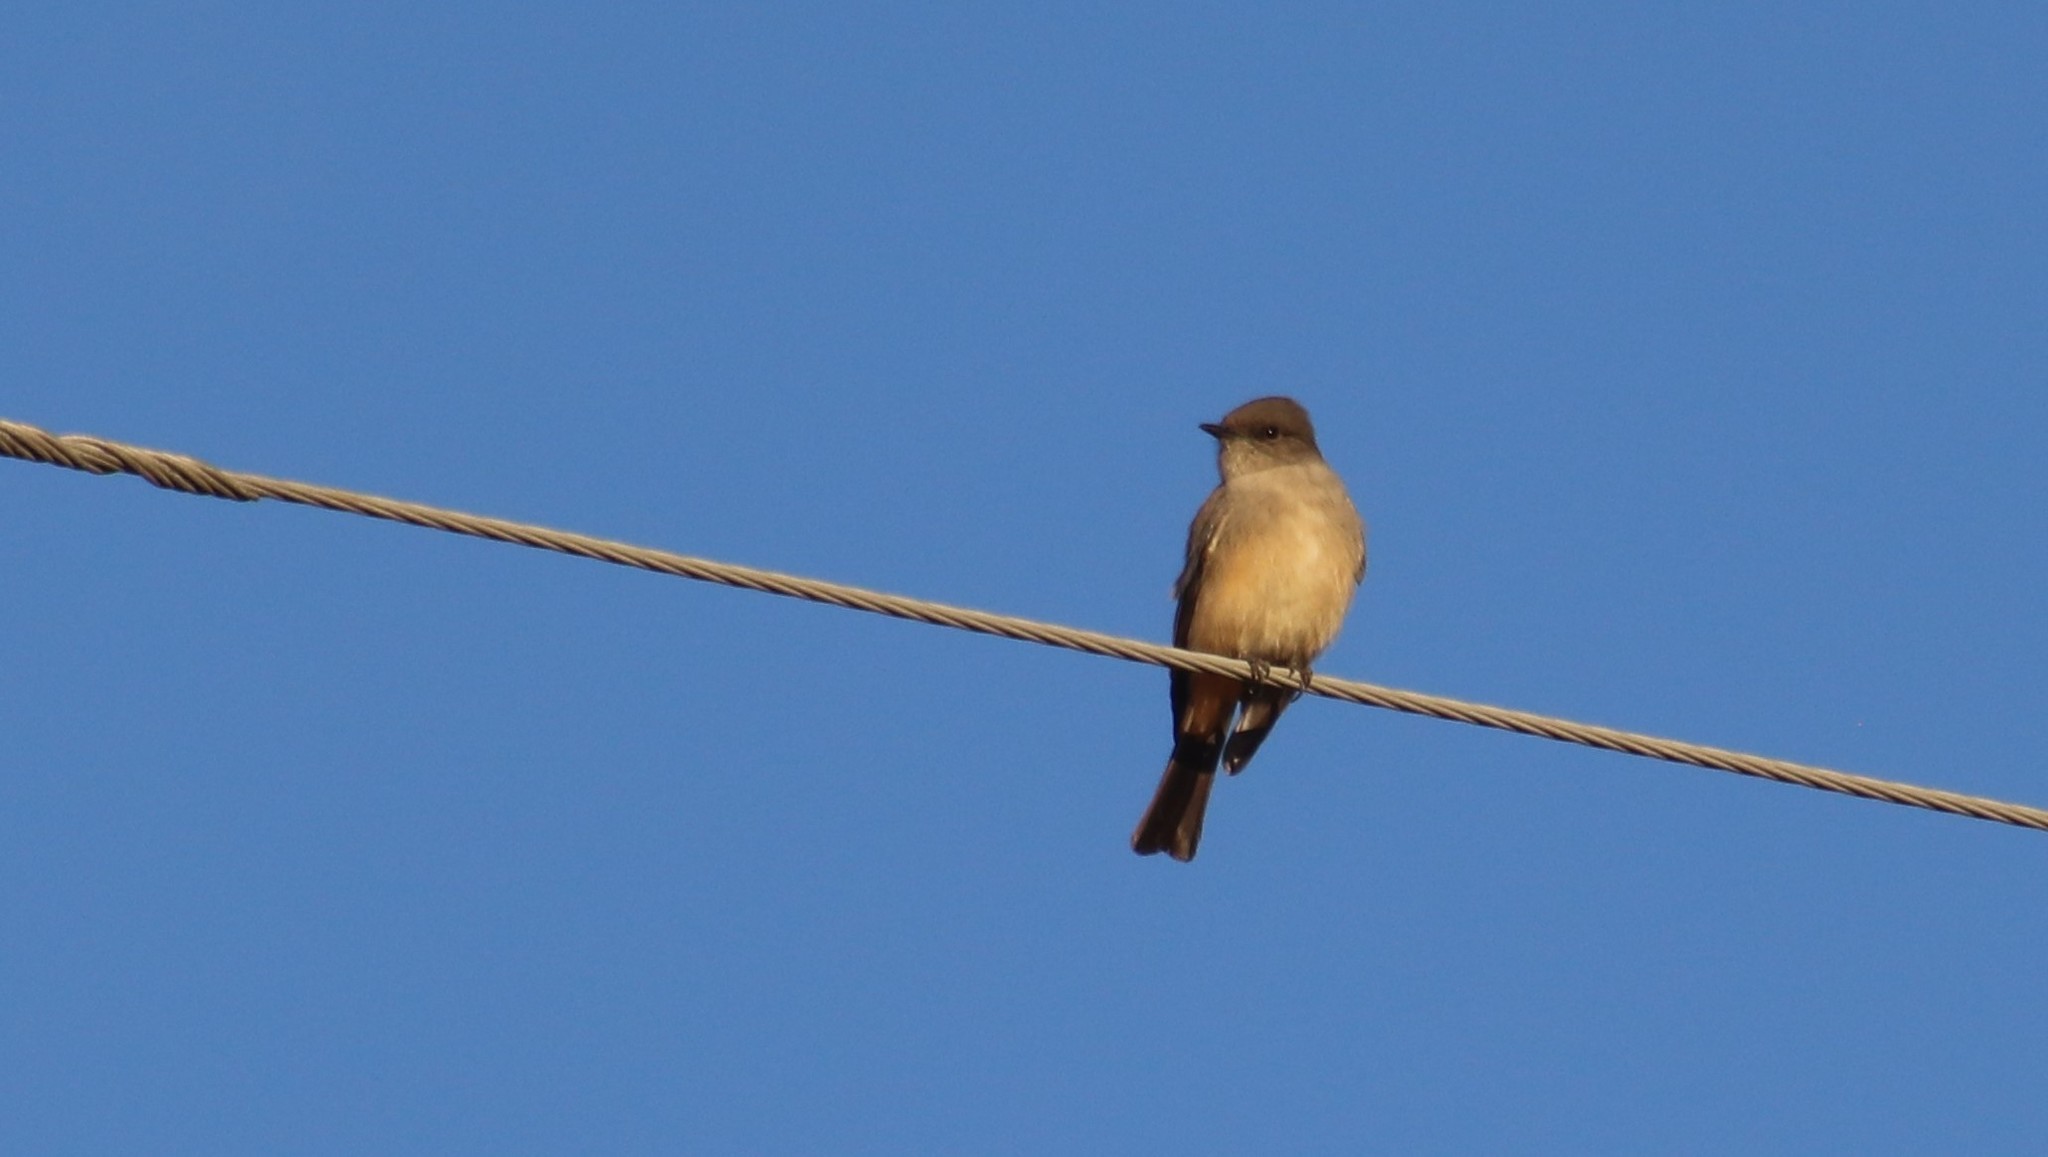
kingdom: Animalia
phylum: Chordata
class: Aves
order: Passeriformes
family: Tyrannidae
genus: Sayornis
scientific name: Sayornis saya
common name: Say's phoebe
